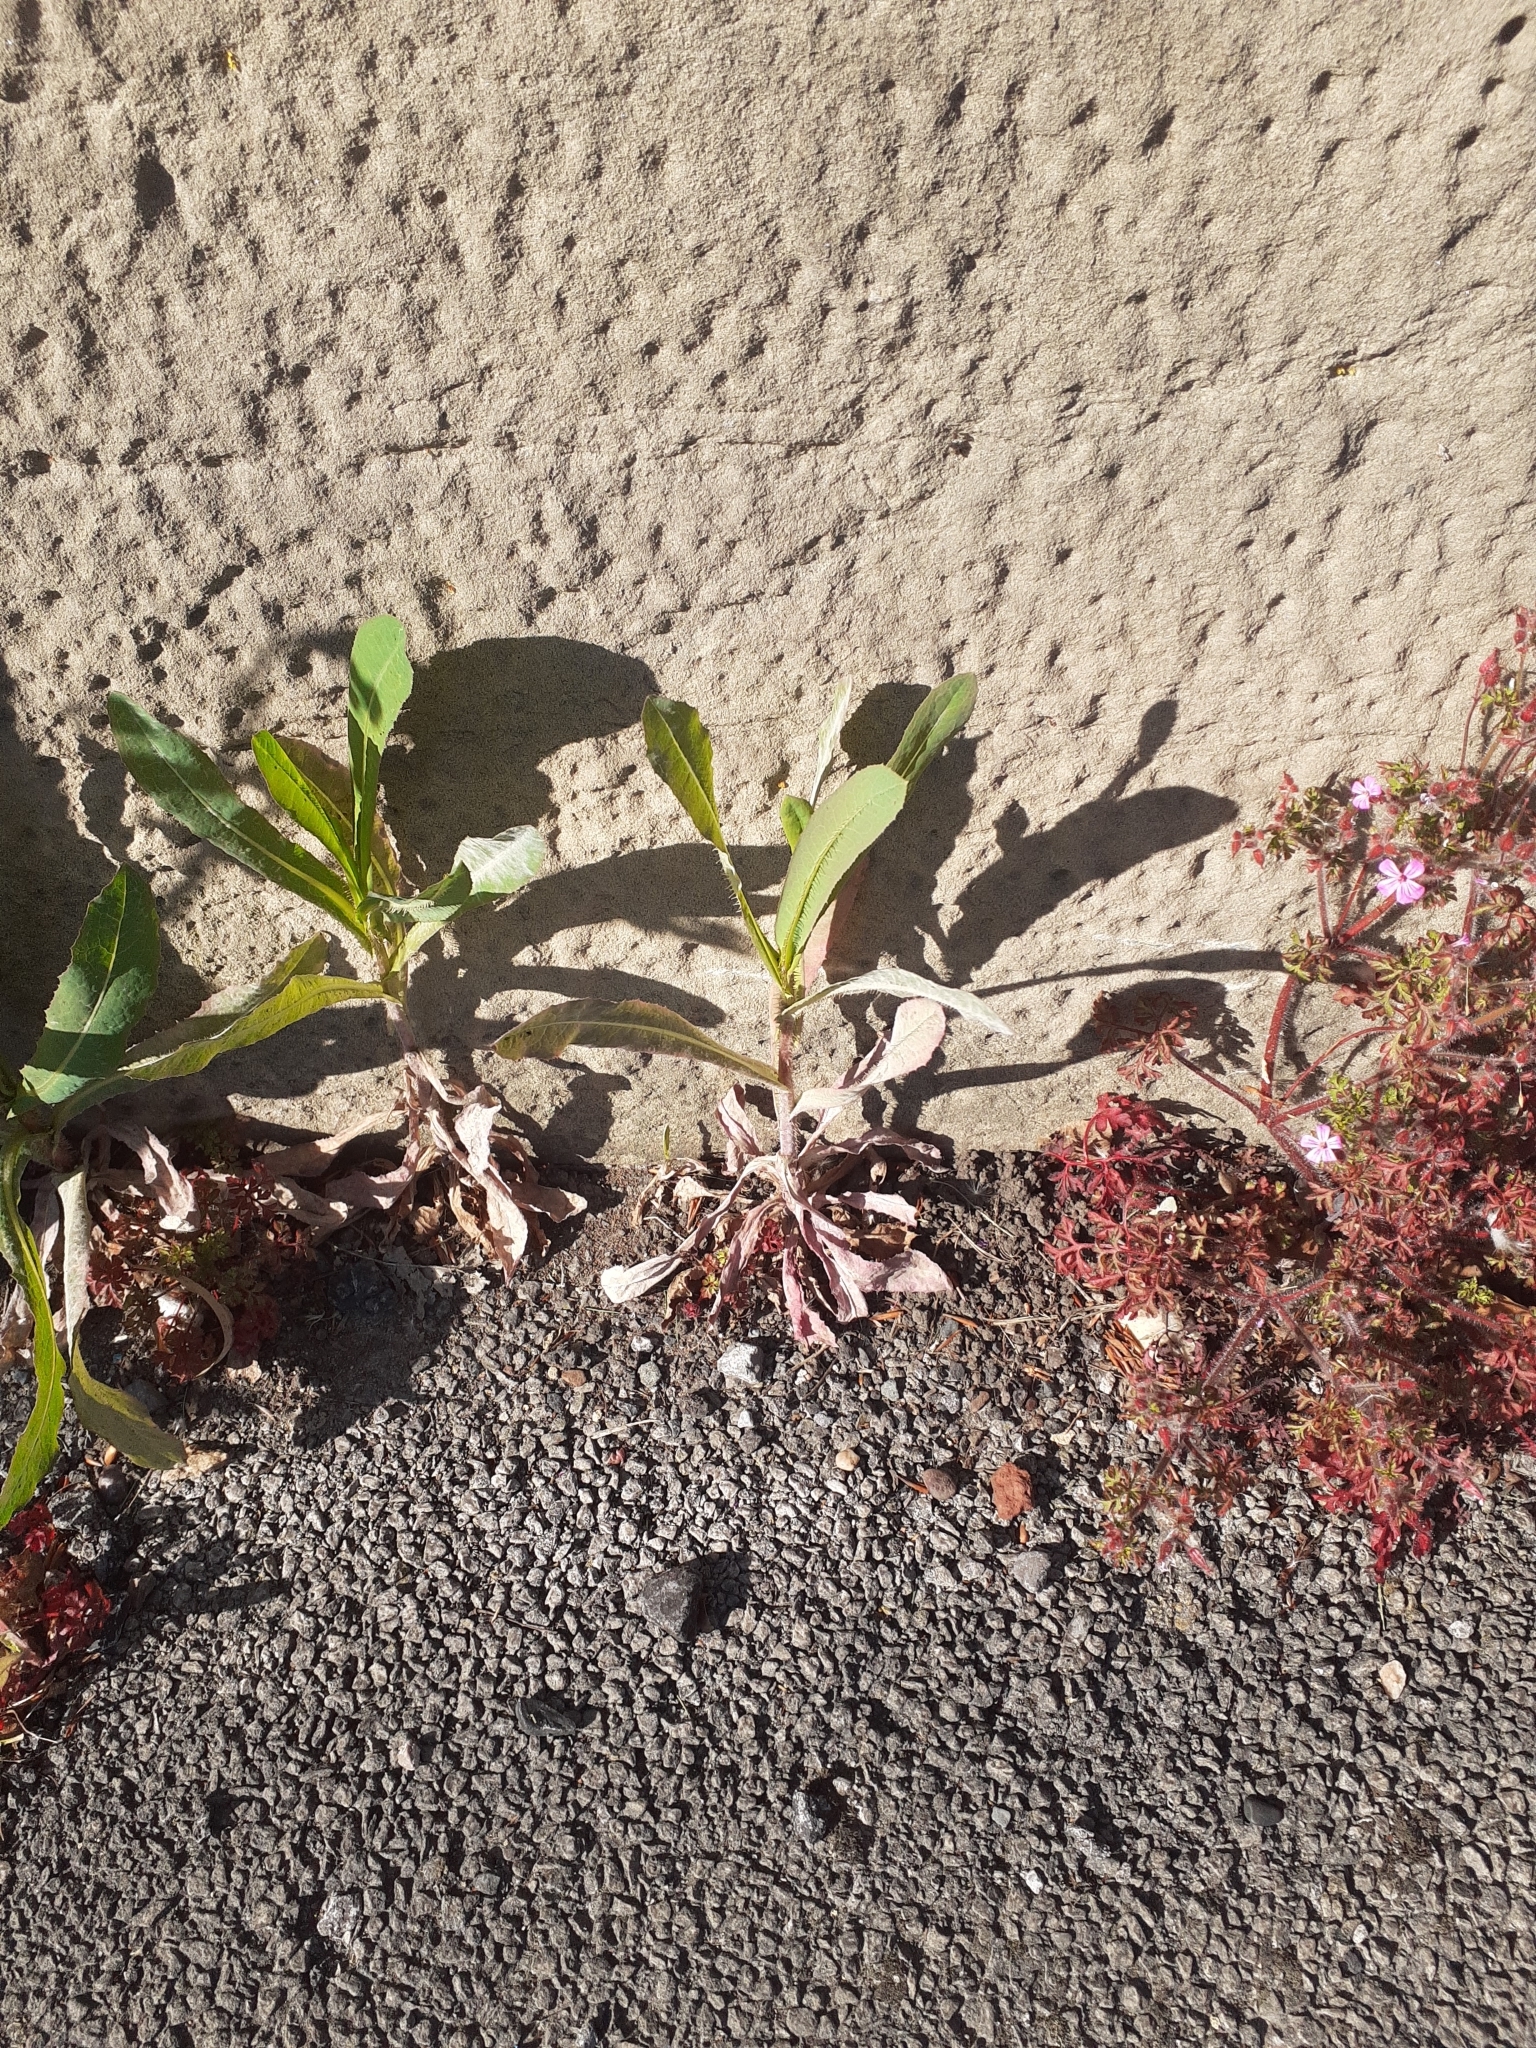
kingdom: Plantae
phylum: Tracheophyta
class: Magnoliopsida
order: Asterales
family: Asteraceae
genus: Lactuca
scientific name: Lactuca serriola
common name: Prickly lettuce
